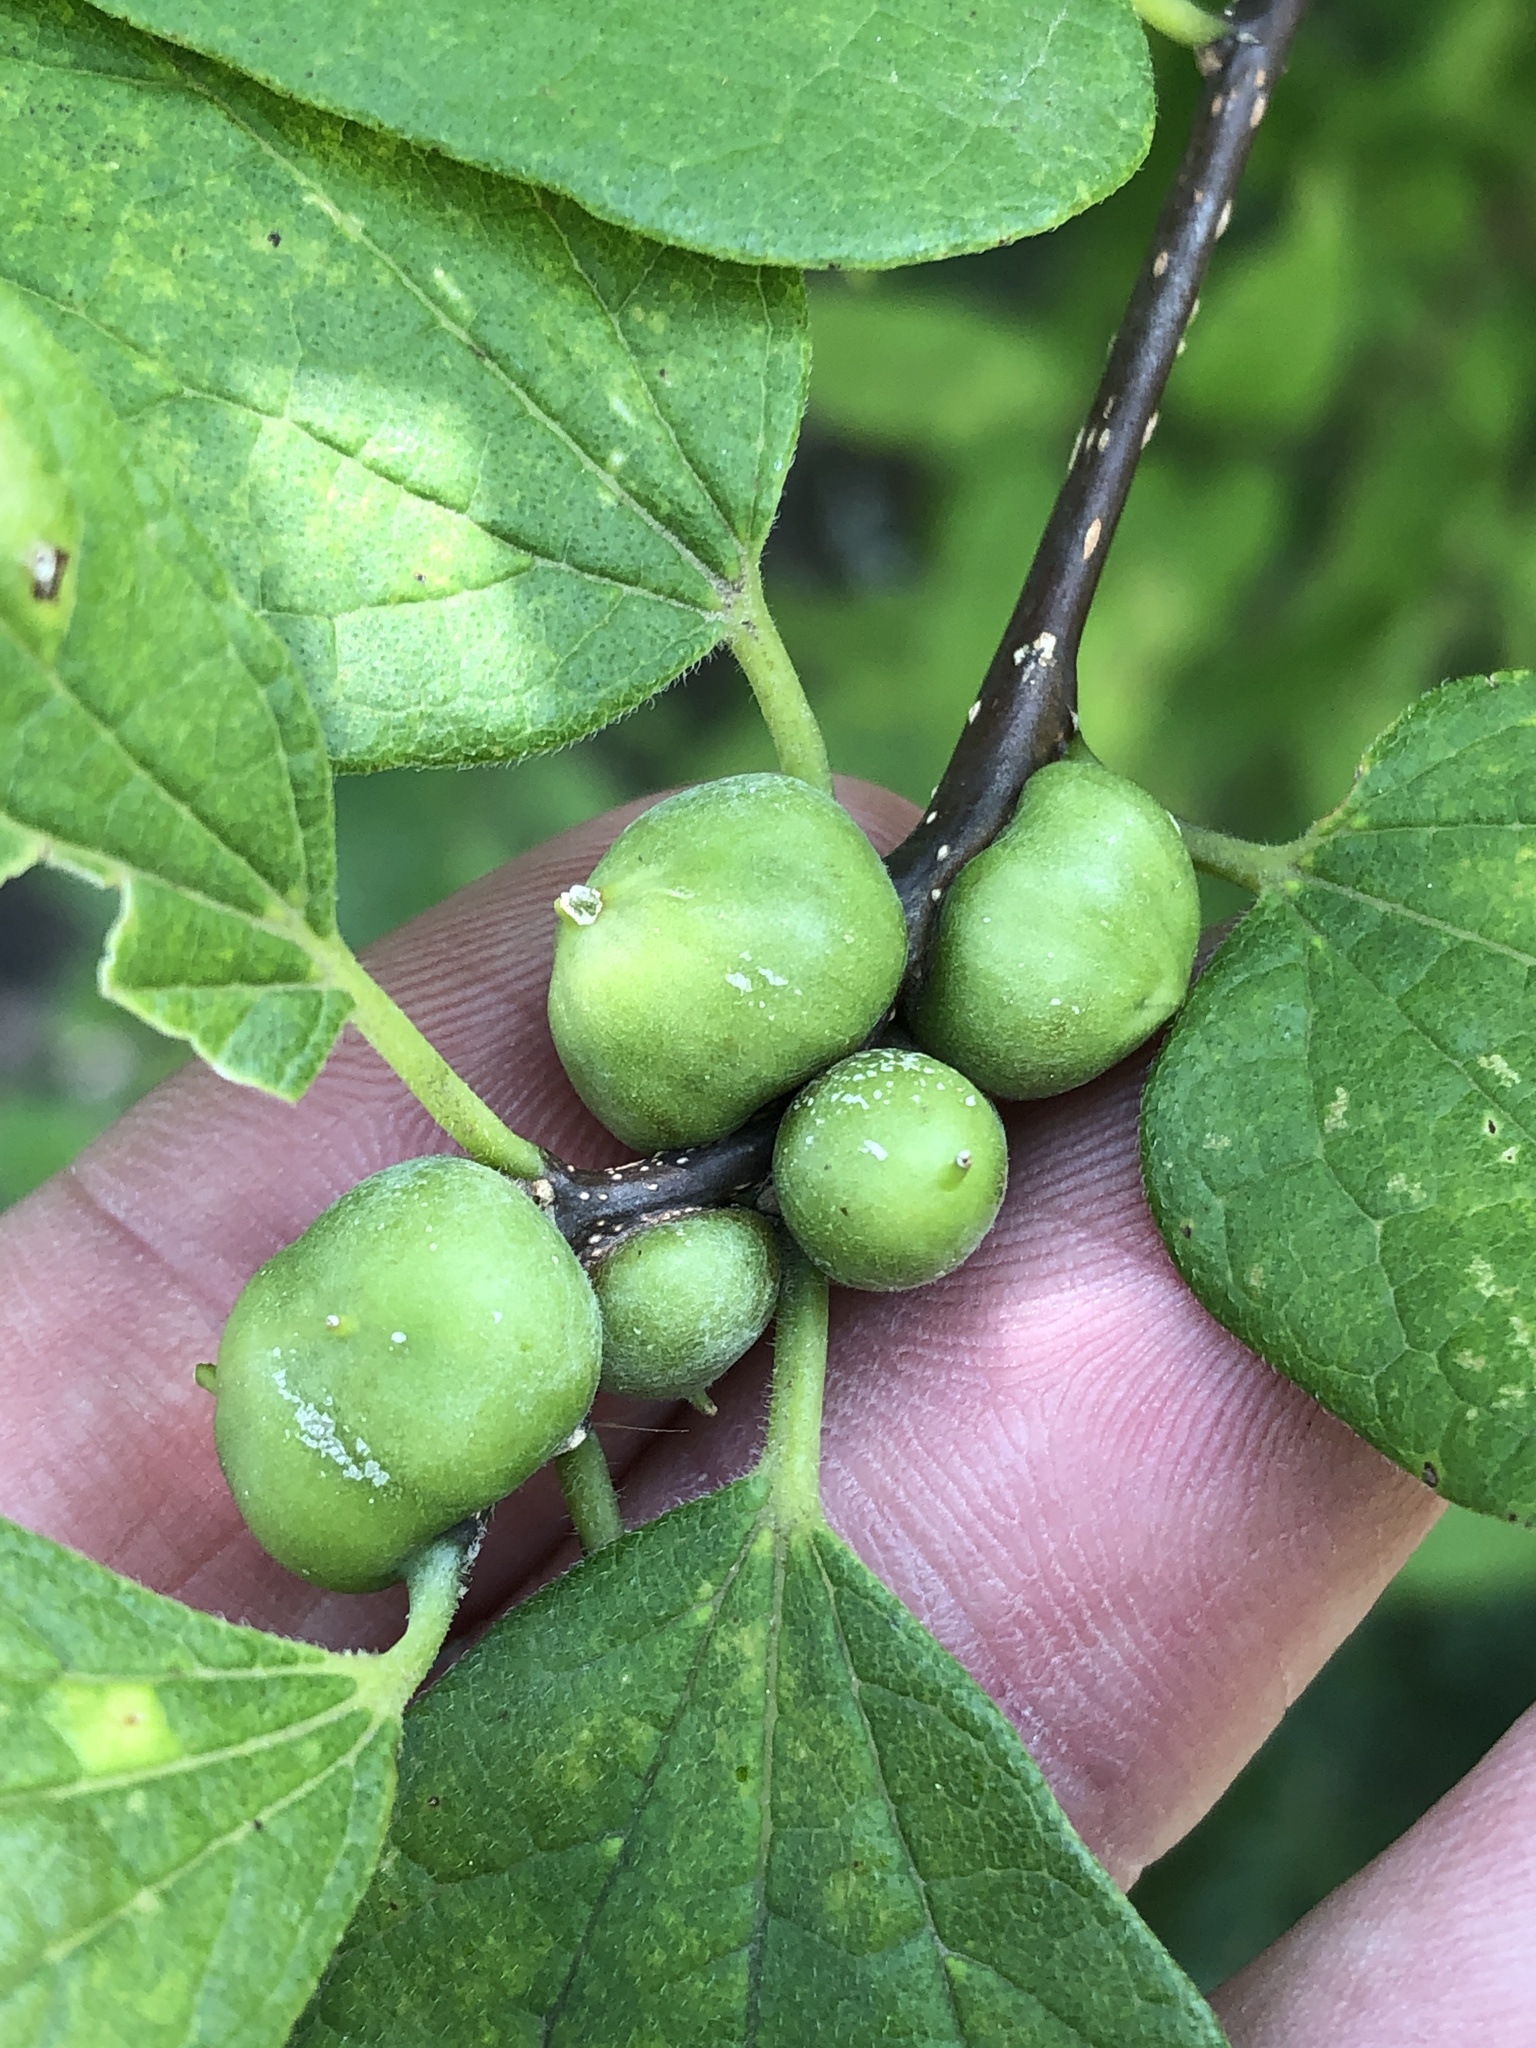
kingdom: Animalia
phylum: Arthropoda
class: Insecta
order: Diptera
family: Cecidomyiidae
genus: Celticecis
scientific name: Celticecis connata
